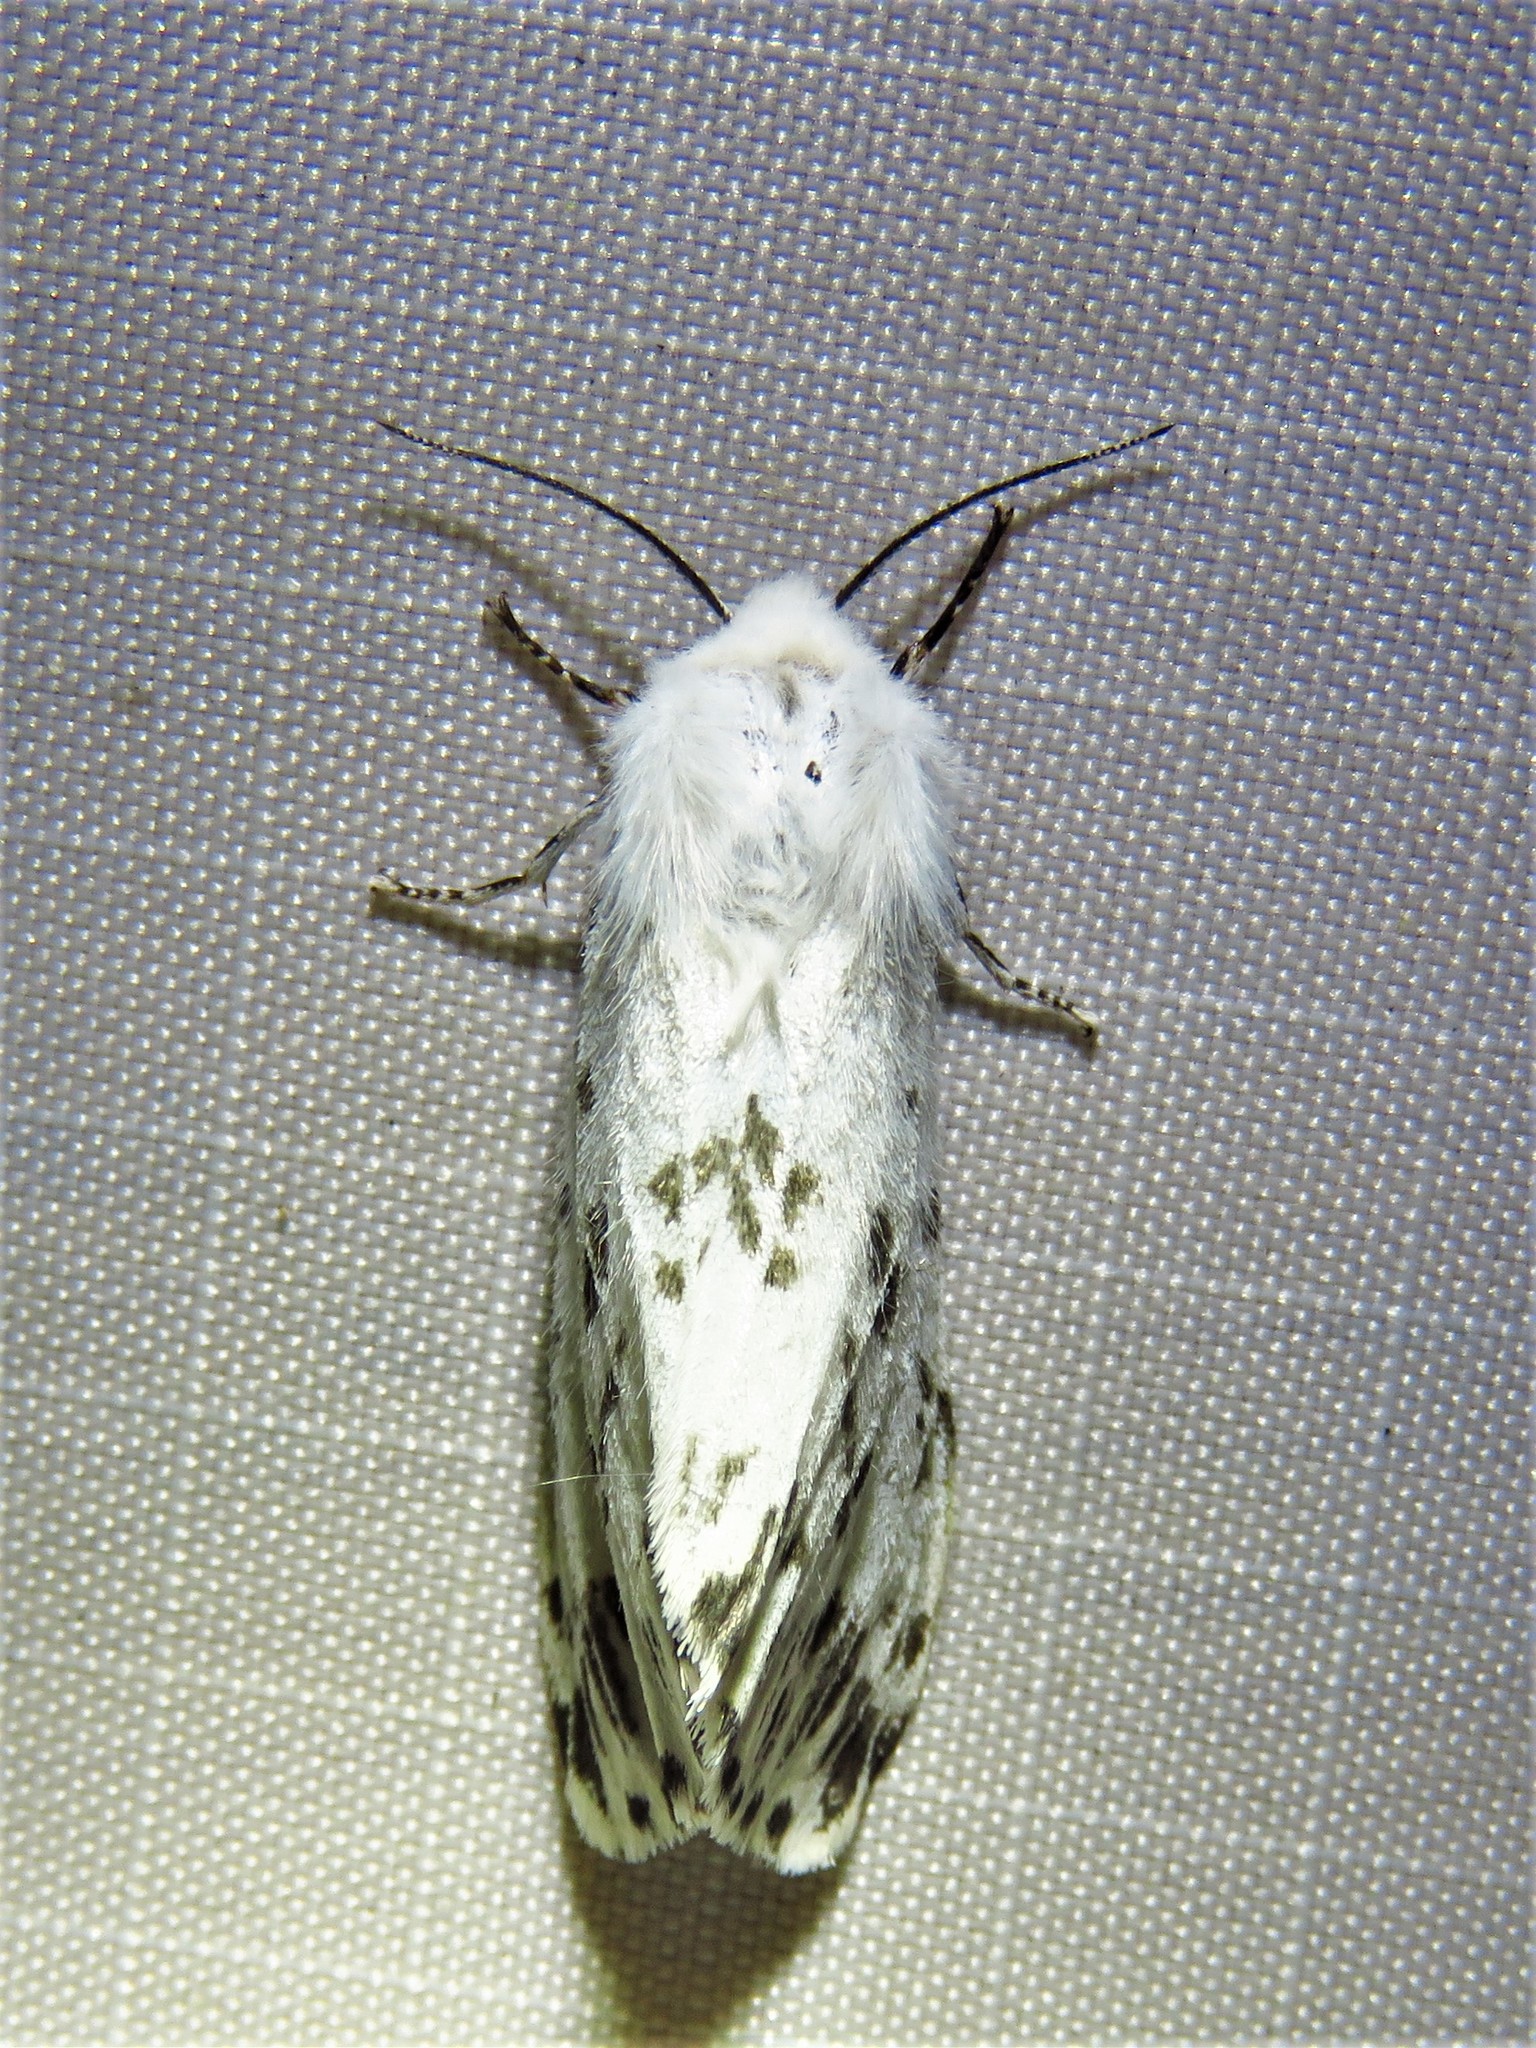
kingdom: Animalia
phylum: Arthropoda
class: Insecta
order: Lepidoptera
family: Erebidae
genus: Hyphantria
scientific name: Hyphantria cunea
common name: American white moth
